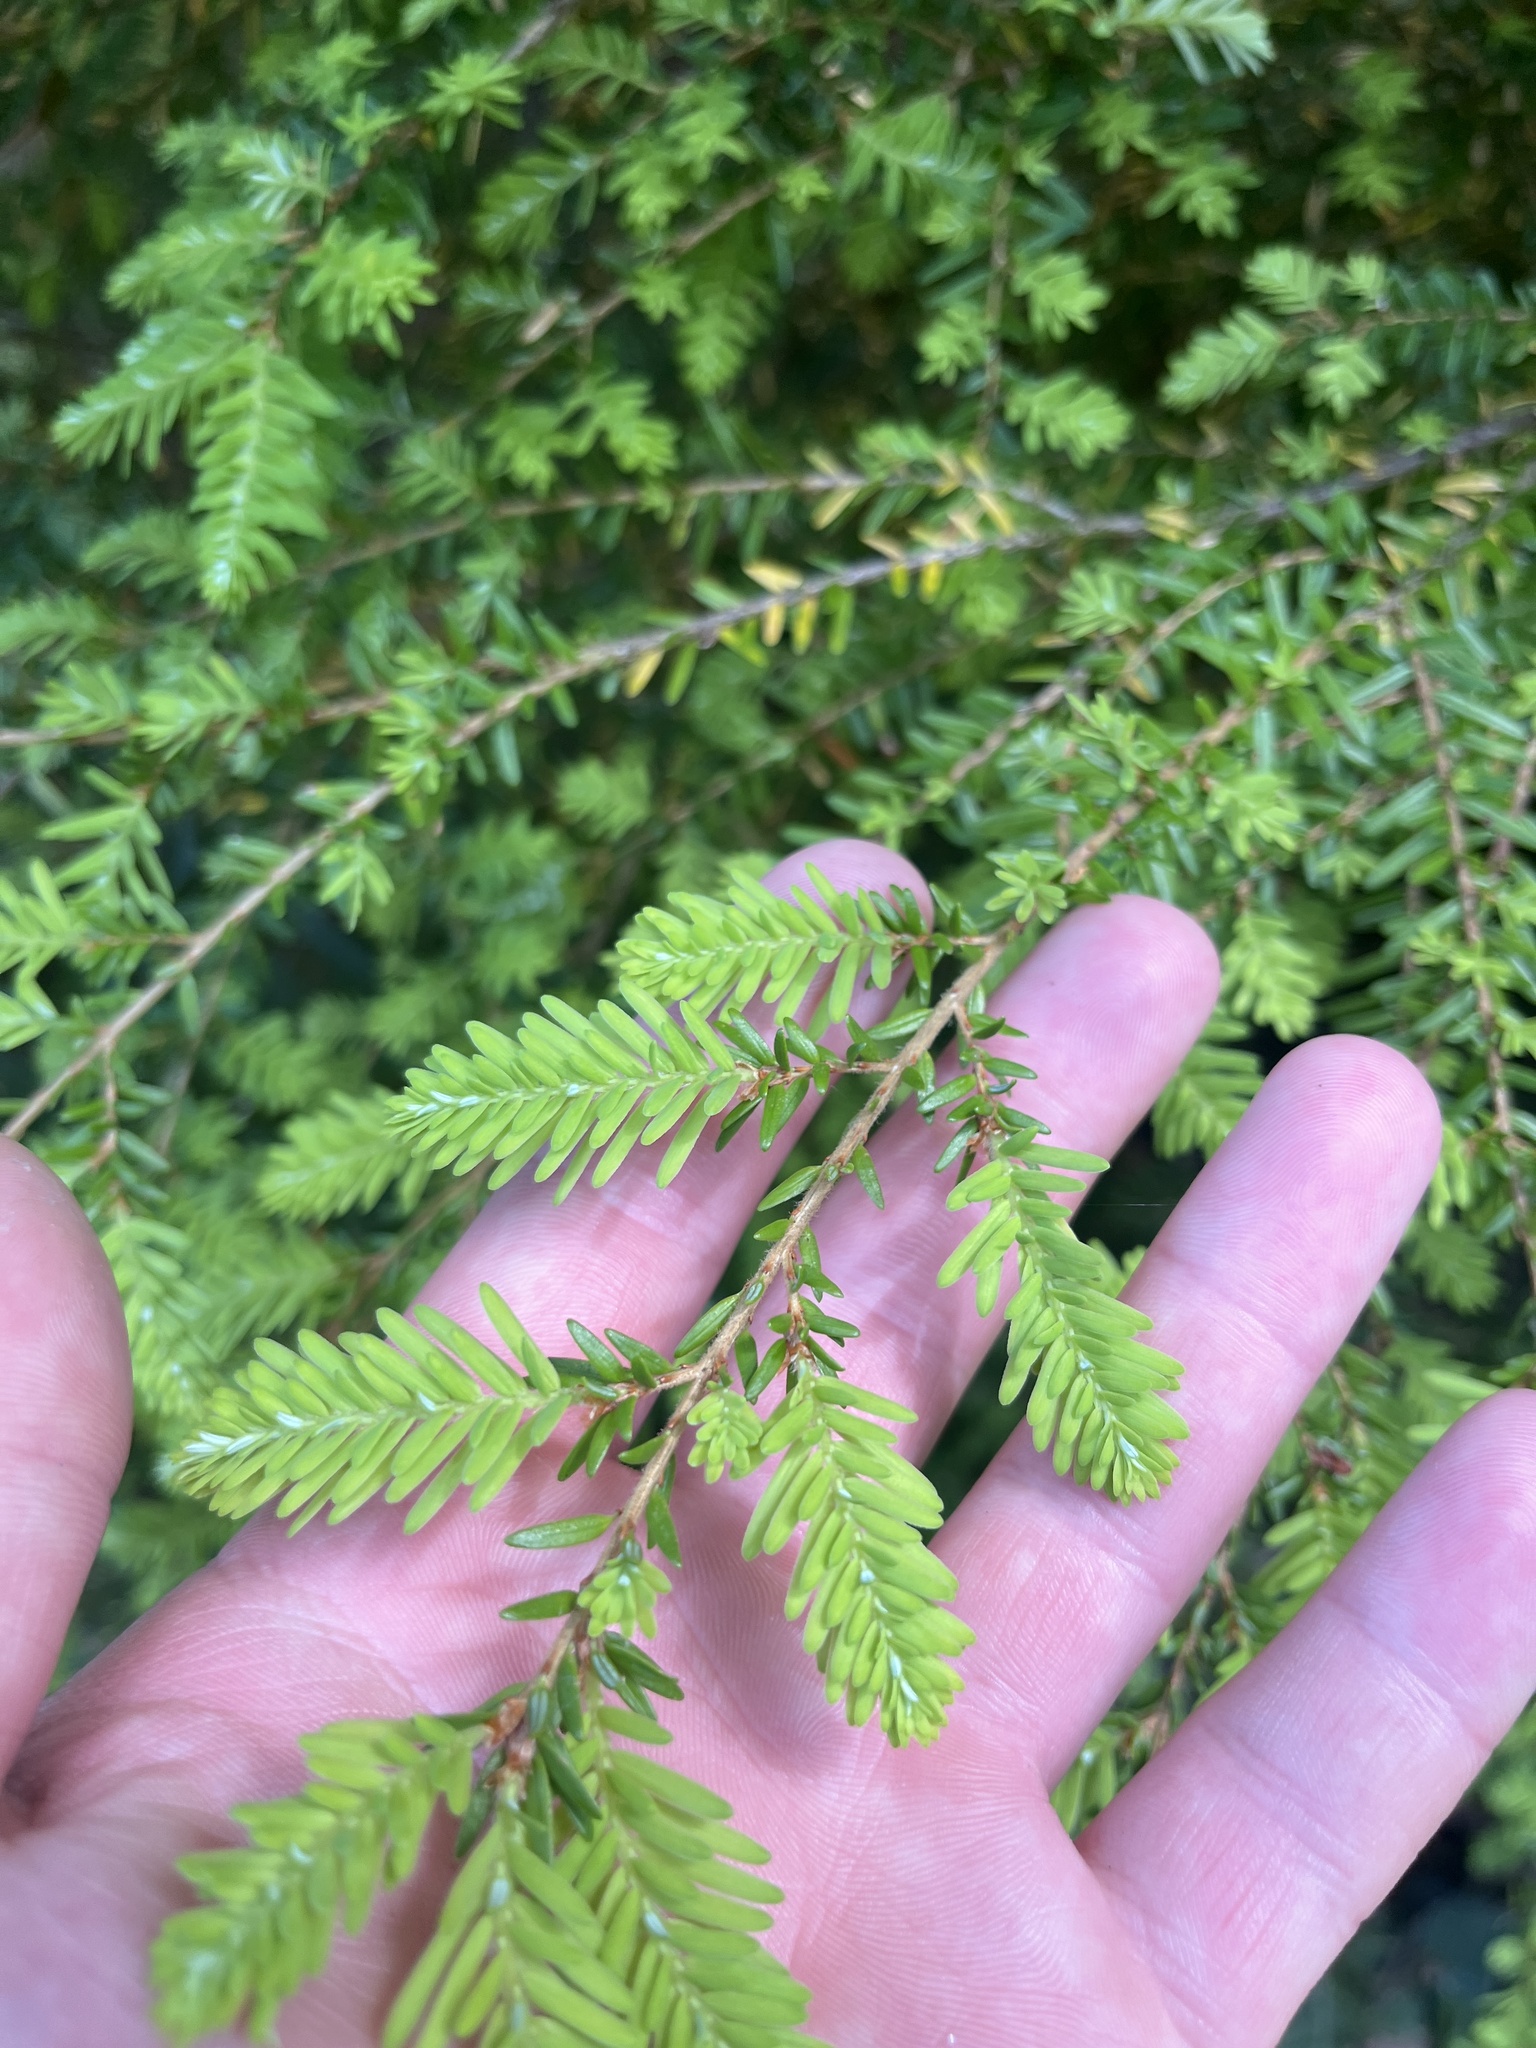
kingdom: Plantae
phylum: Tracheophyta
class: Pinopsida
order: Pinales
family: Pinaceae
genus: Tsuga
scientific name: Tsuga heterophylla
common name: Western hemlock
